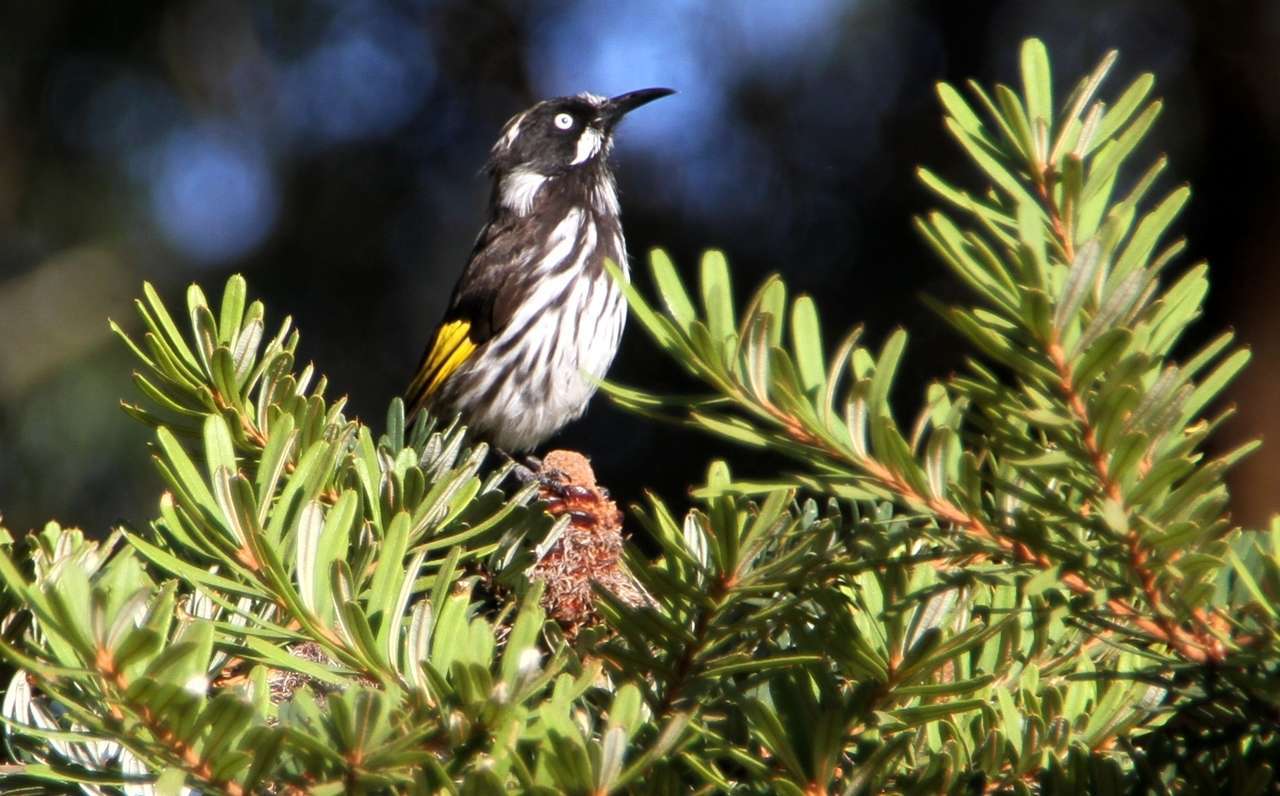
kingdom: Animalia
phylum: Chordata
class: Aves
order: Passeriformes
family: Meliphagidae
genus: Phylidonyris
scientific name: Phylidonyris novaehollandiae
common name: New holland honeyeater
